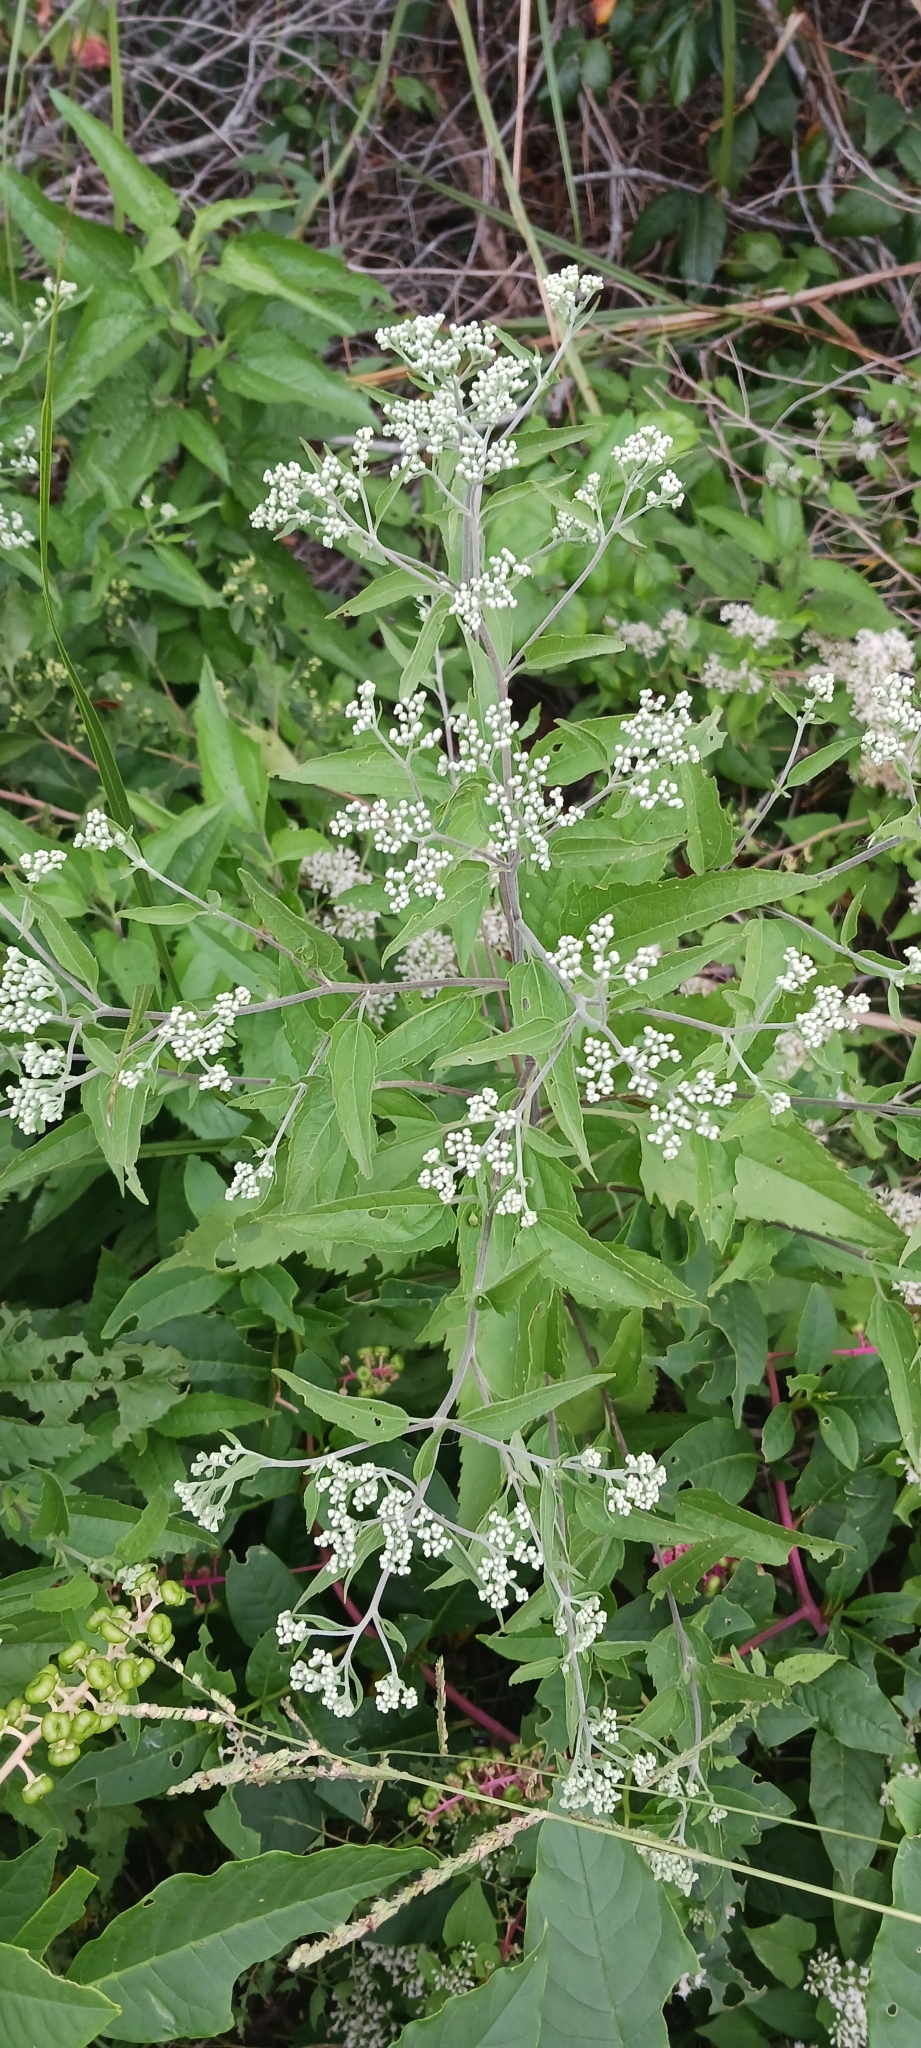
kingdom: Plantae
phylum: Tracheophyta
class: Magnoliopsida
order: Asterales
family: Asteraceae
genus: Eupatorium
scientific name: Eupatorium serotinum
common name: Late boneset
